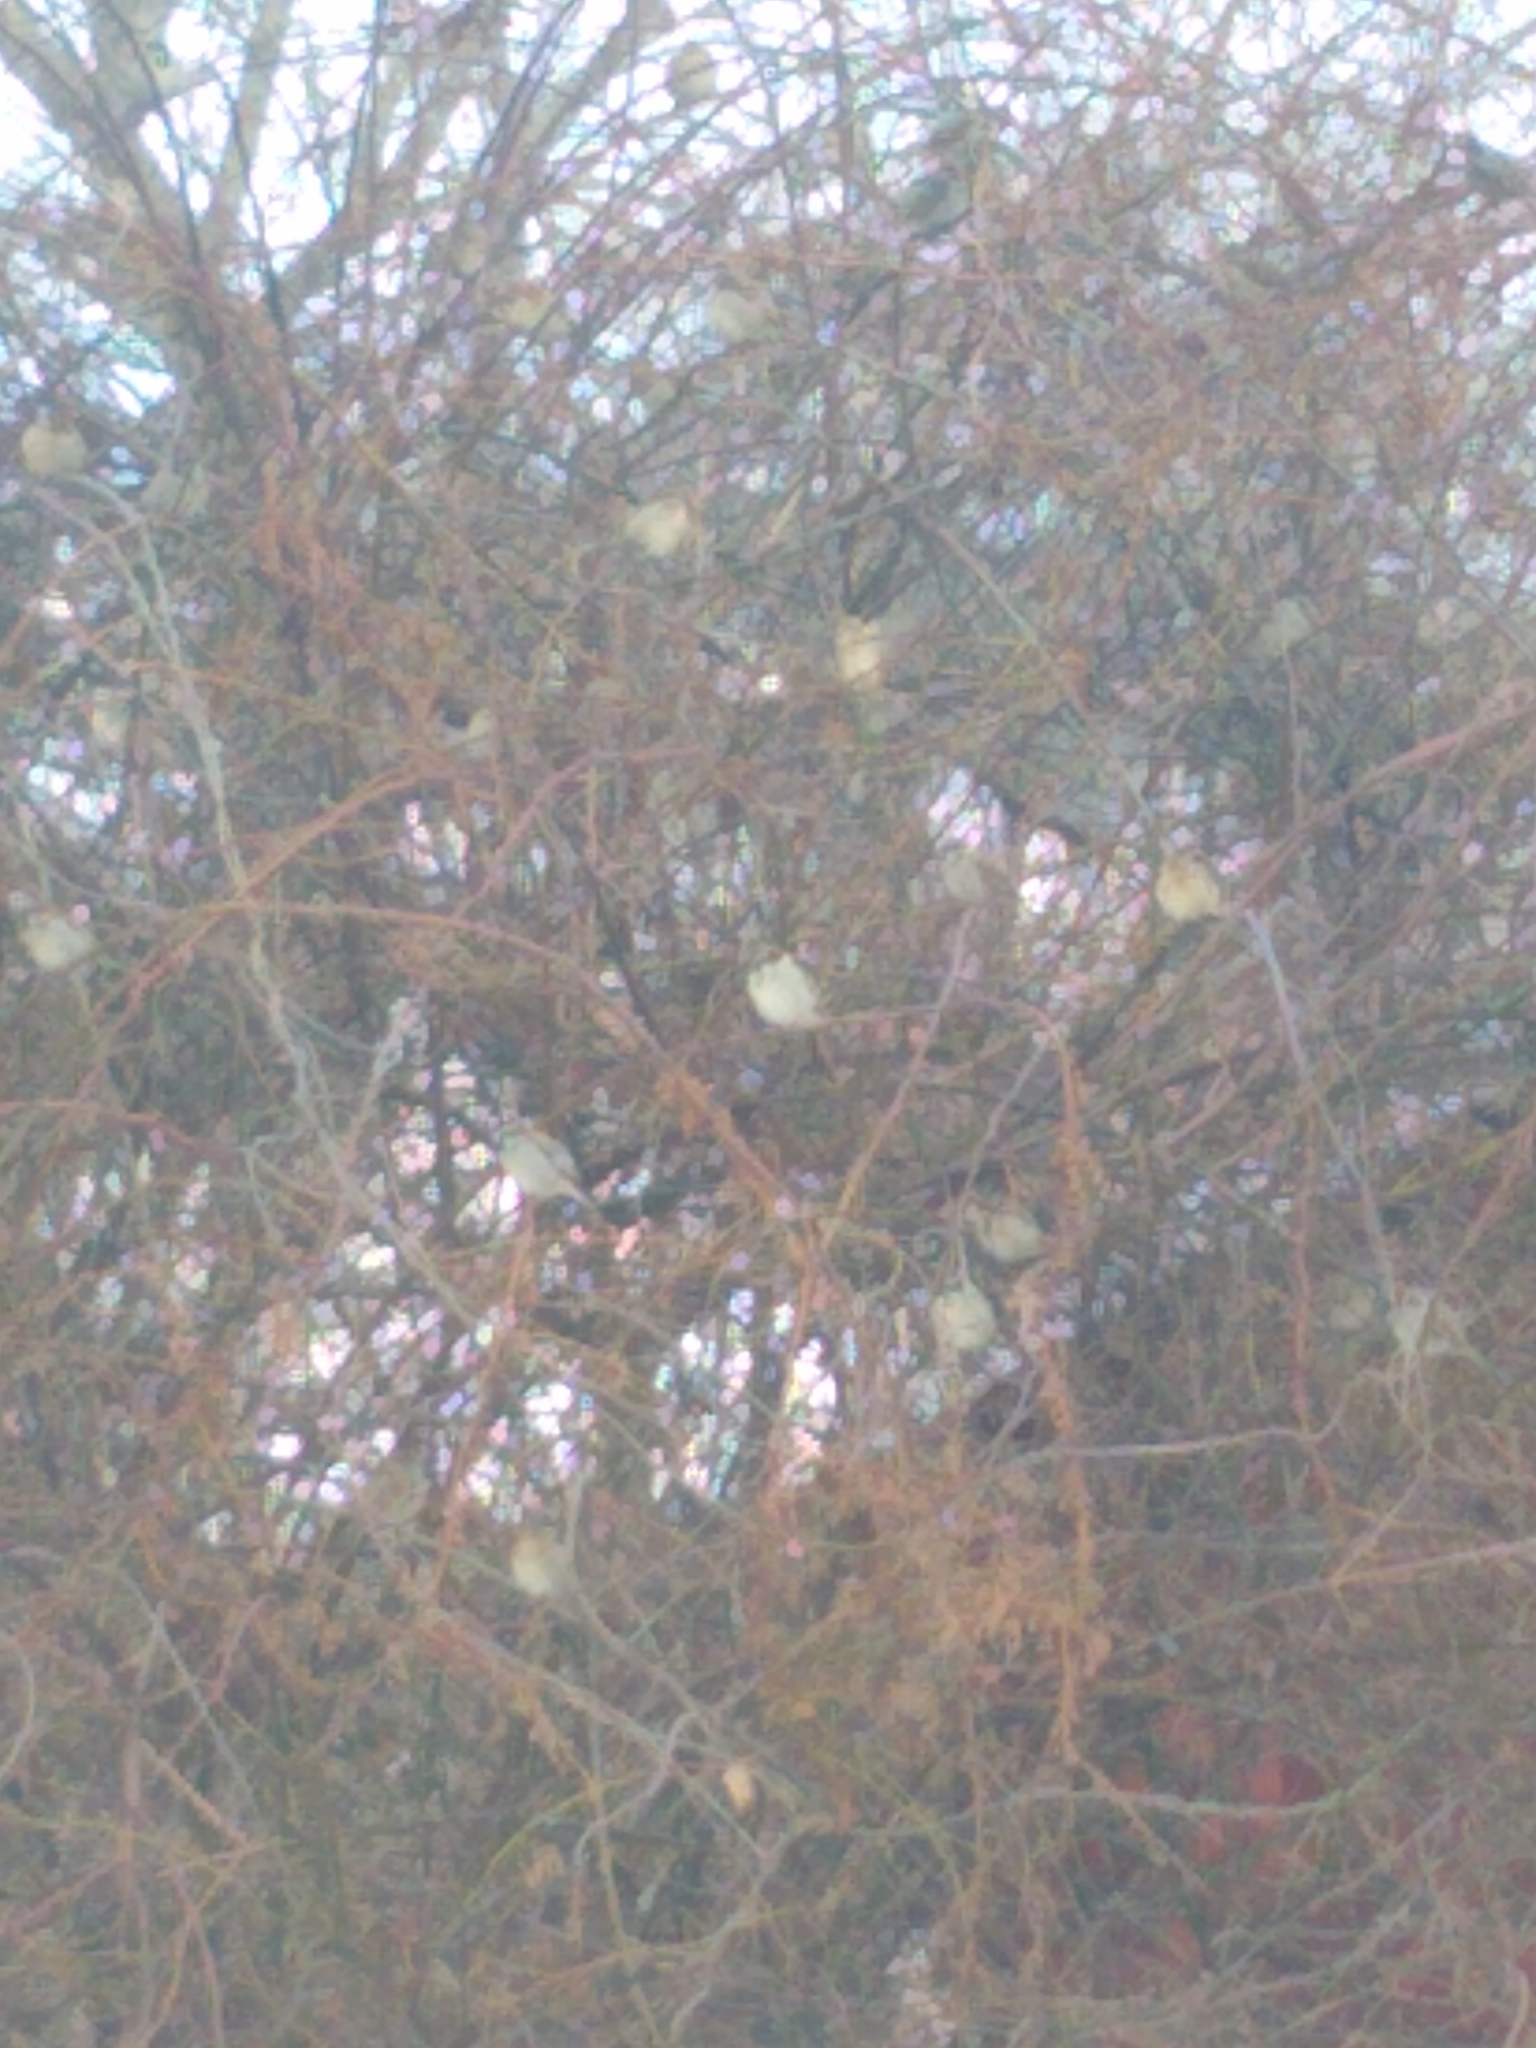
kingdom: Animalia
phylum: Chordata
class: Aves
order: Passeriformes
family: Passeridae
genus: Passer
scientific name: Passer domesticus
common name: House sparrow
